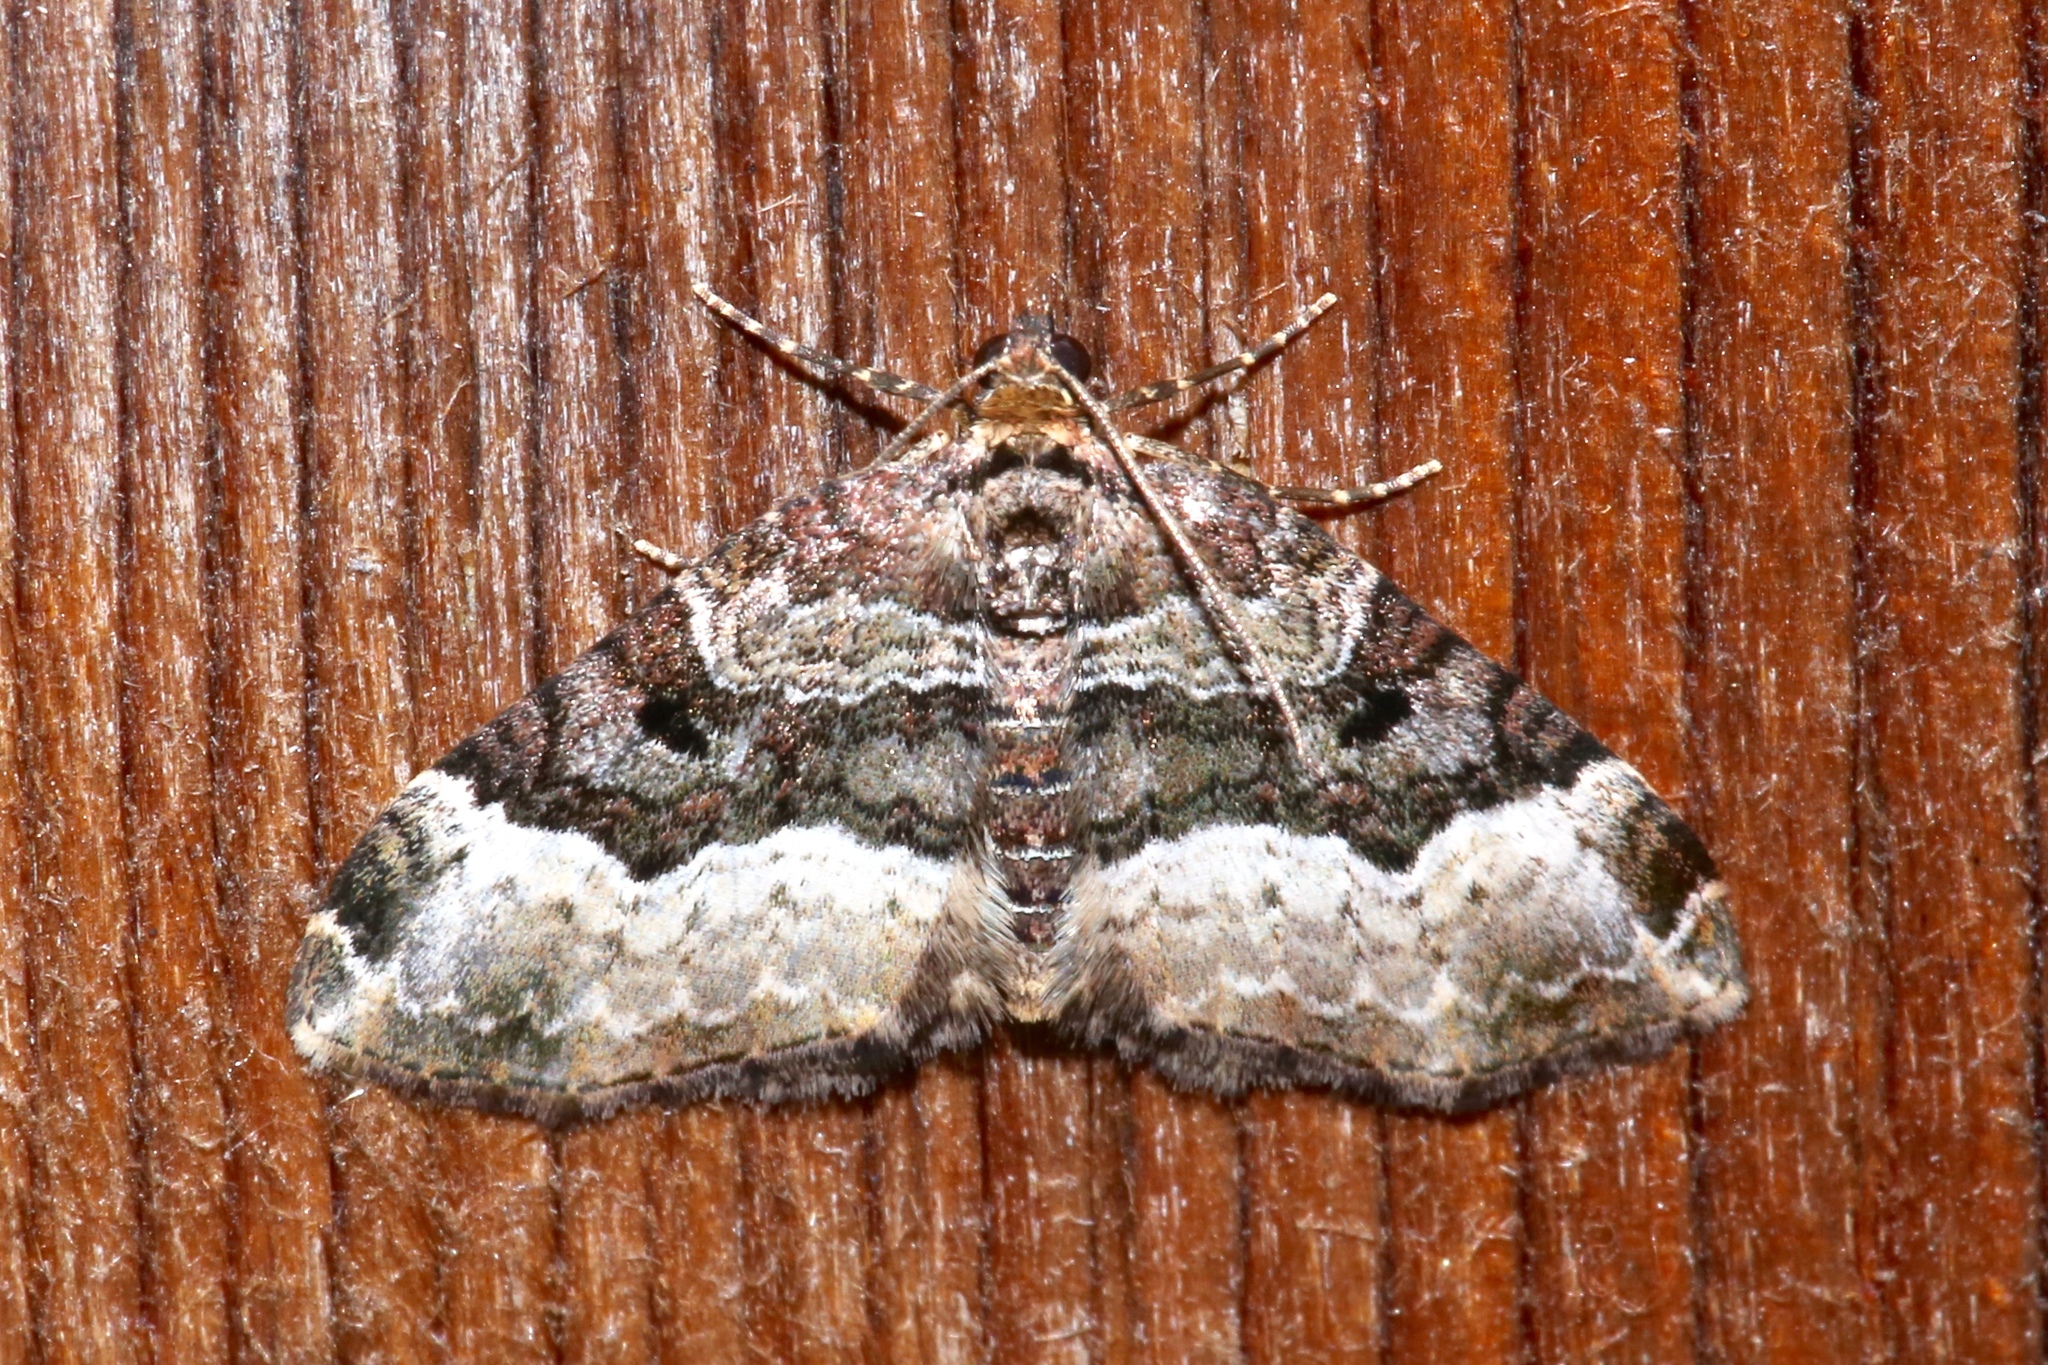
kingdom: Animalia
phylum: Arthropoda
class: Insecta
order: Lepidoptera
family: Geometridae
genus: Euphyia
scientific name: Euphyia intermediata
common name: Sharp-angled carpet
